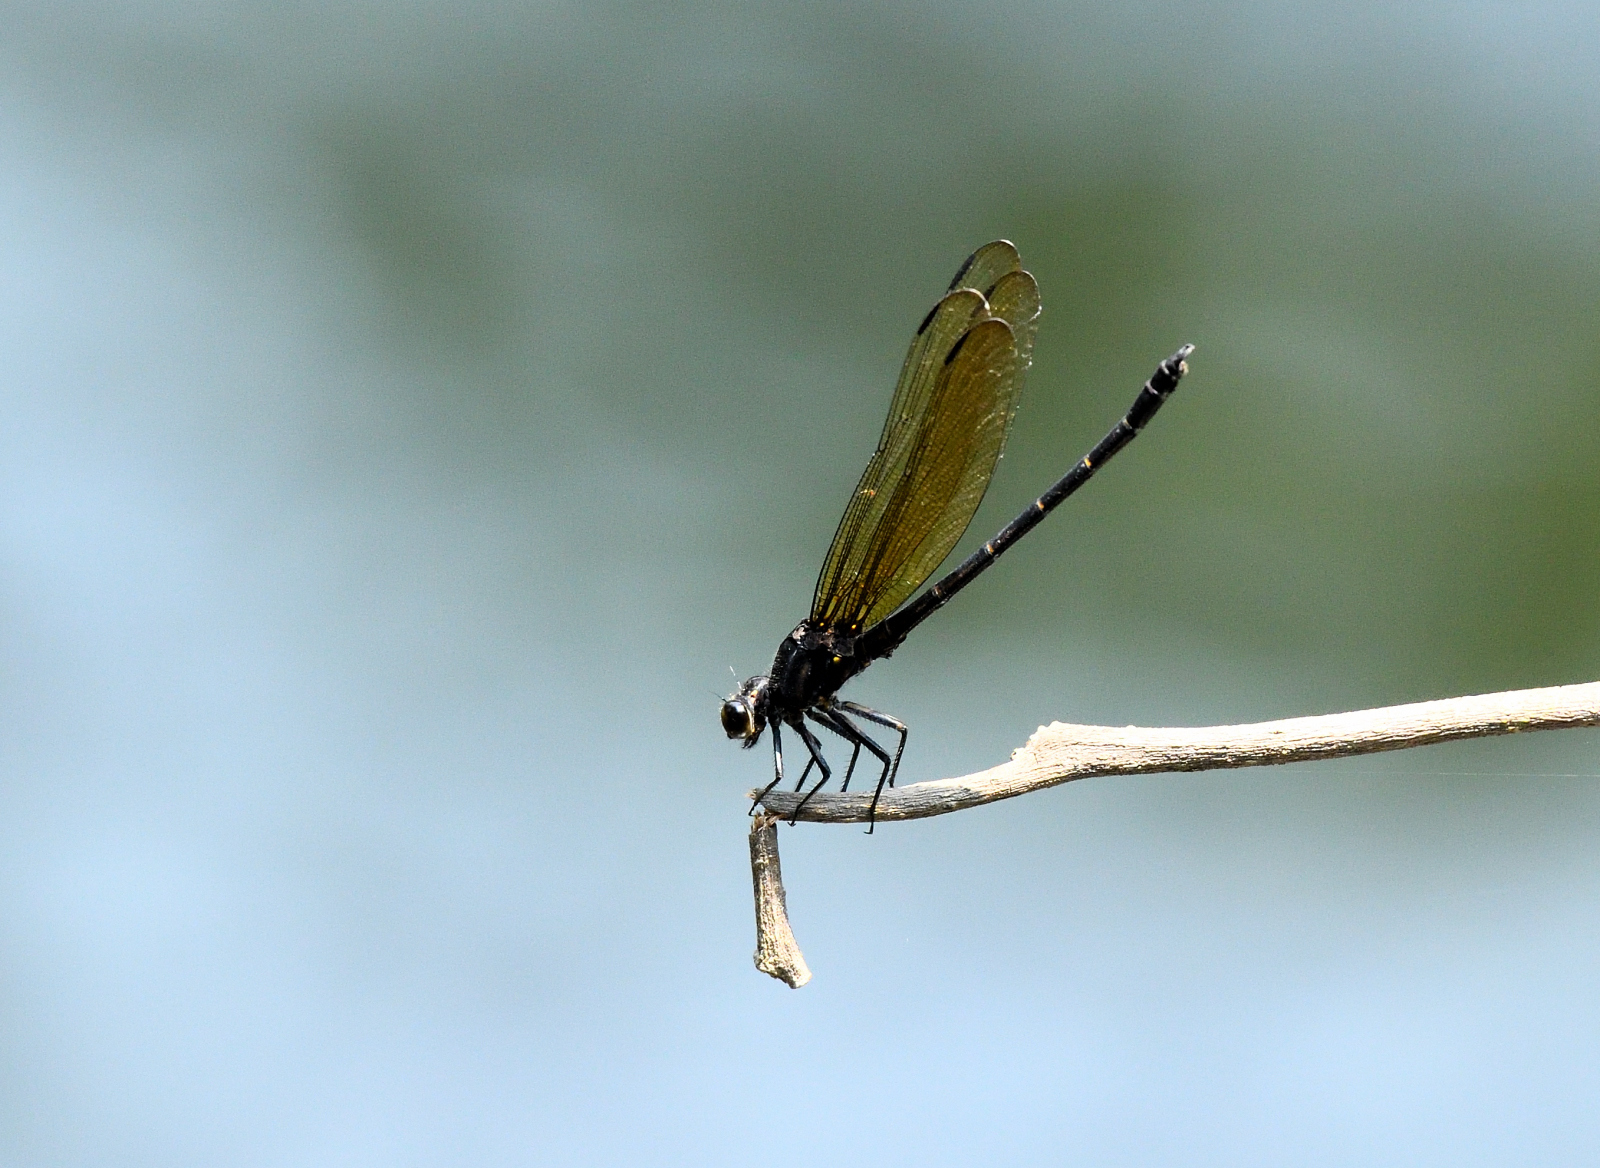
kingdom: Animalia
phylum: Arthropoda
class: Insecta
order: Odonata
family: Euphaeidae
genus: Dysphaea
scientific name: Dysphaea ethela
